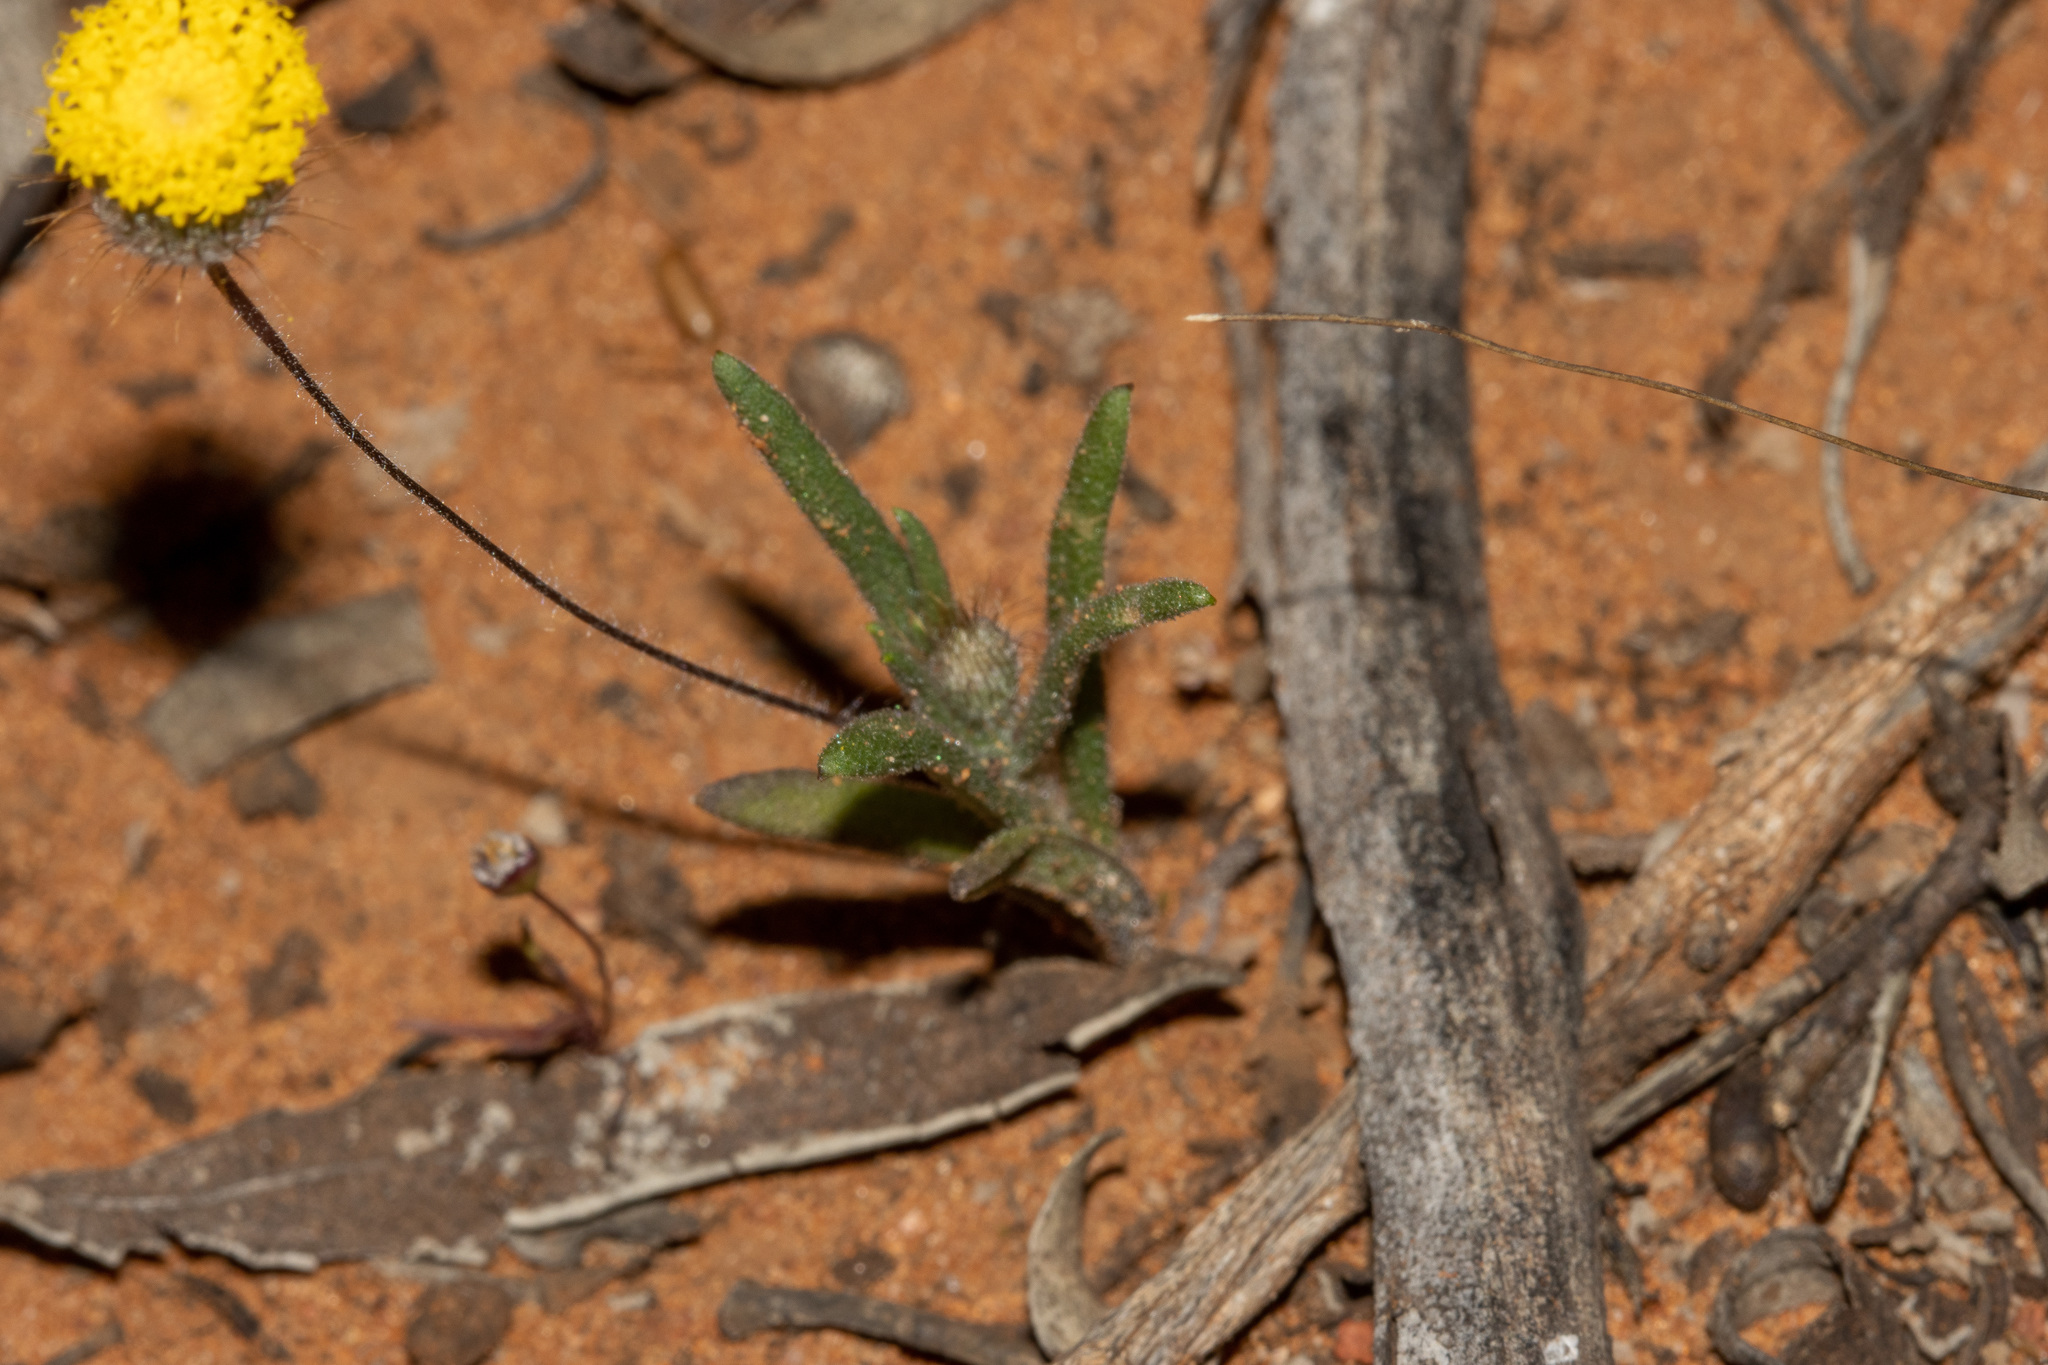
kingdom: Plantae
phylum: Tracheophyta
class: Magnoliopsida
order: Asterales
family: Asteraceae
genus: Asteridea
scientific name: Asteridea athrixioides
